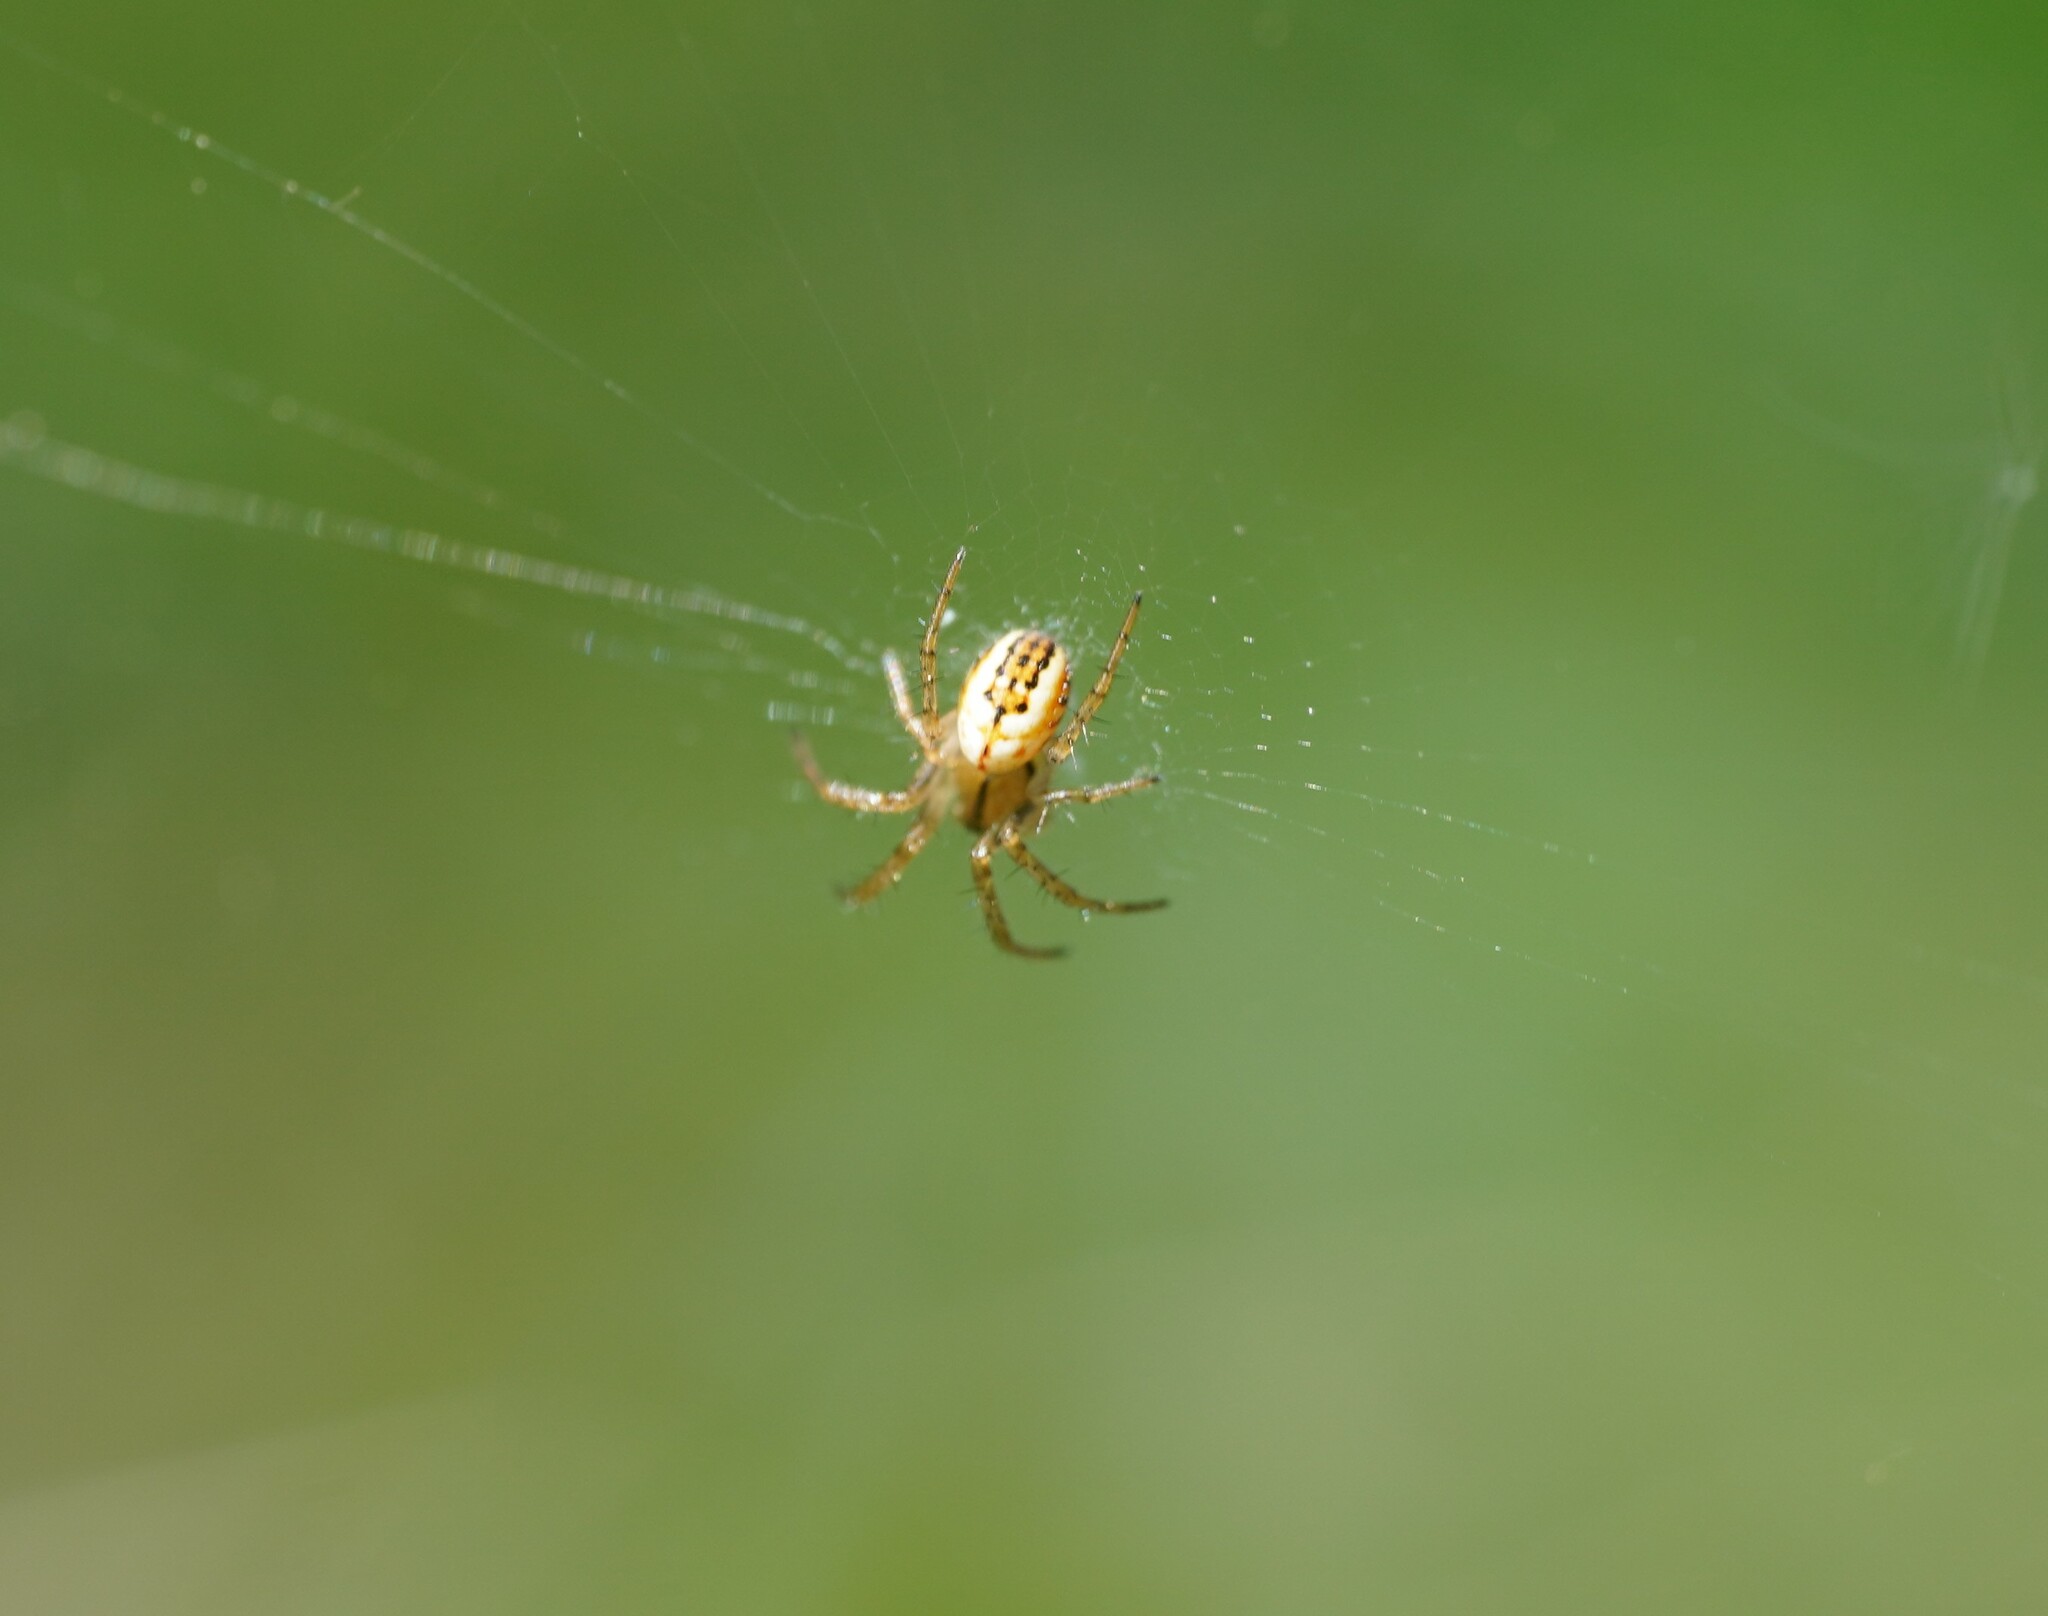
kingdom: Animalia
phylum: Arthropoda
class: Arachnida
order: Araneae
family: Araneidae
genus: Mangora
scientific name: Mangora acalypha
